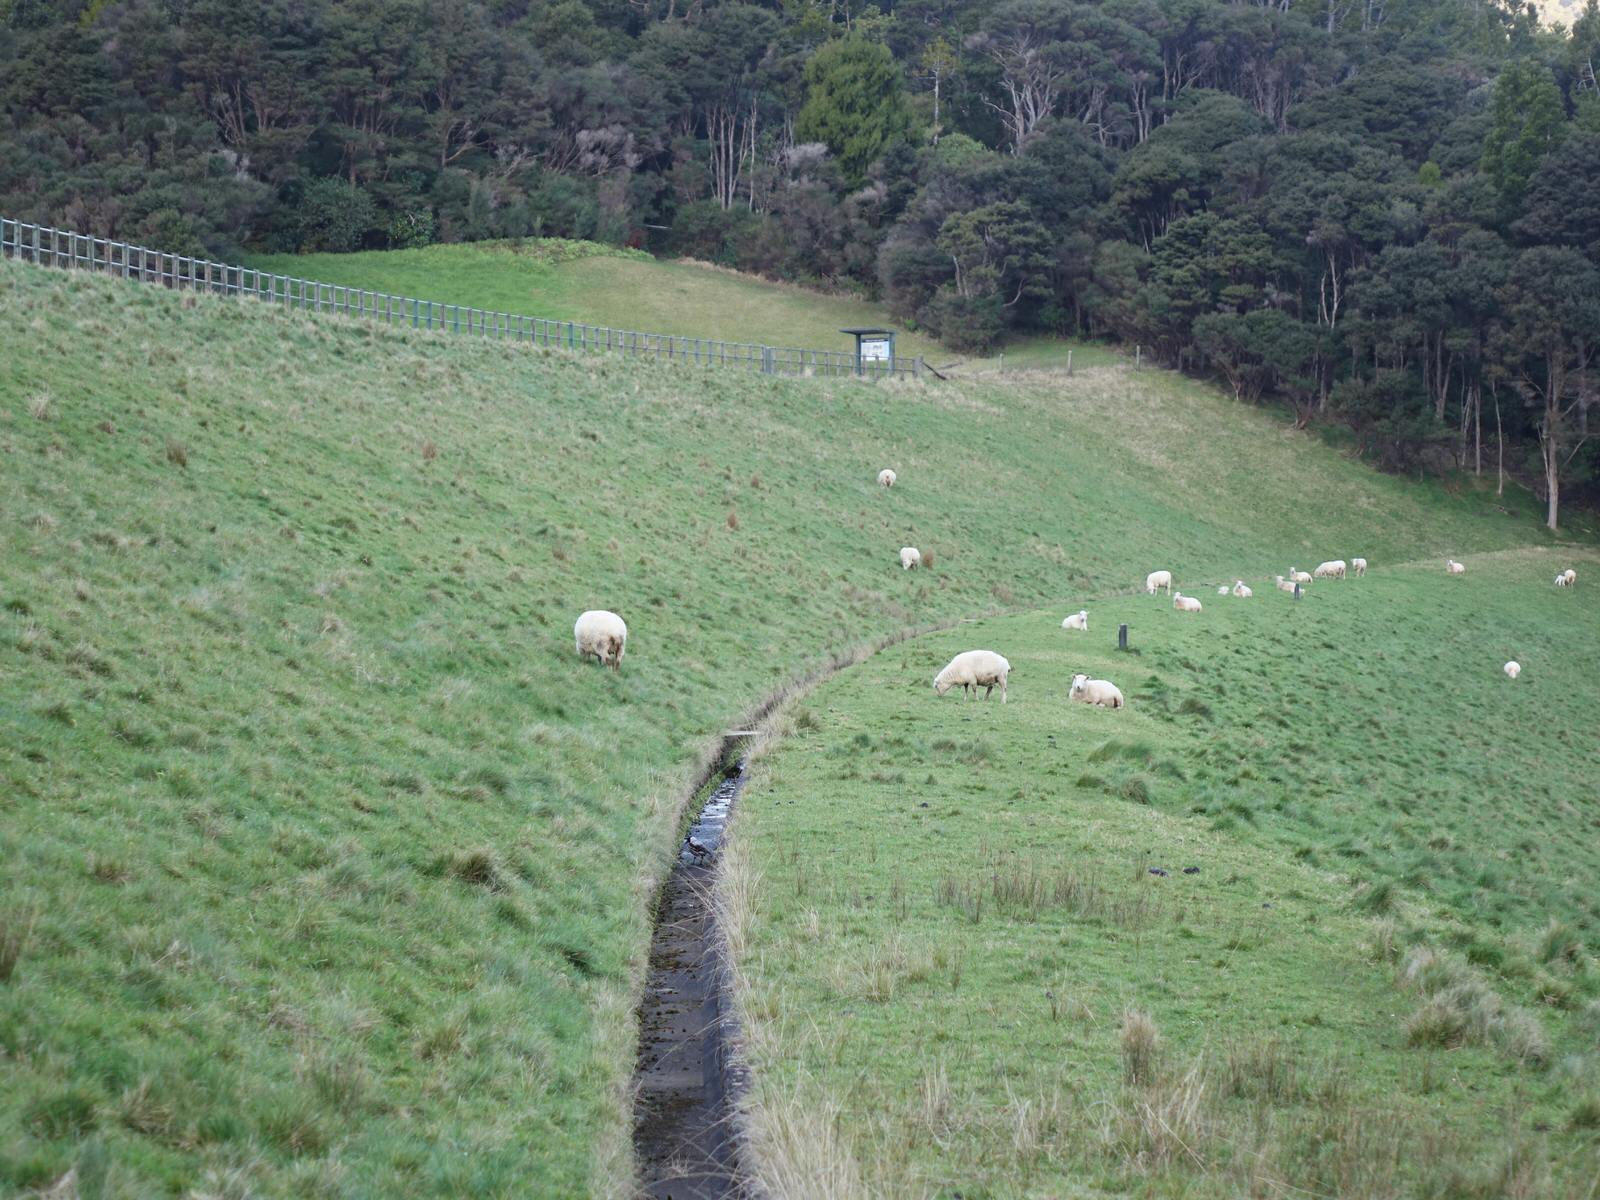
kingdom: Animalia
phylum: Chordata
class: Aves
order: Passeriformes
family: Cracticidae
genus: Gymnorhina
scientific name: Gymnorhina tibicen
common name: Australian magpie
